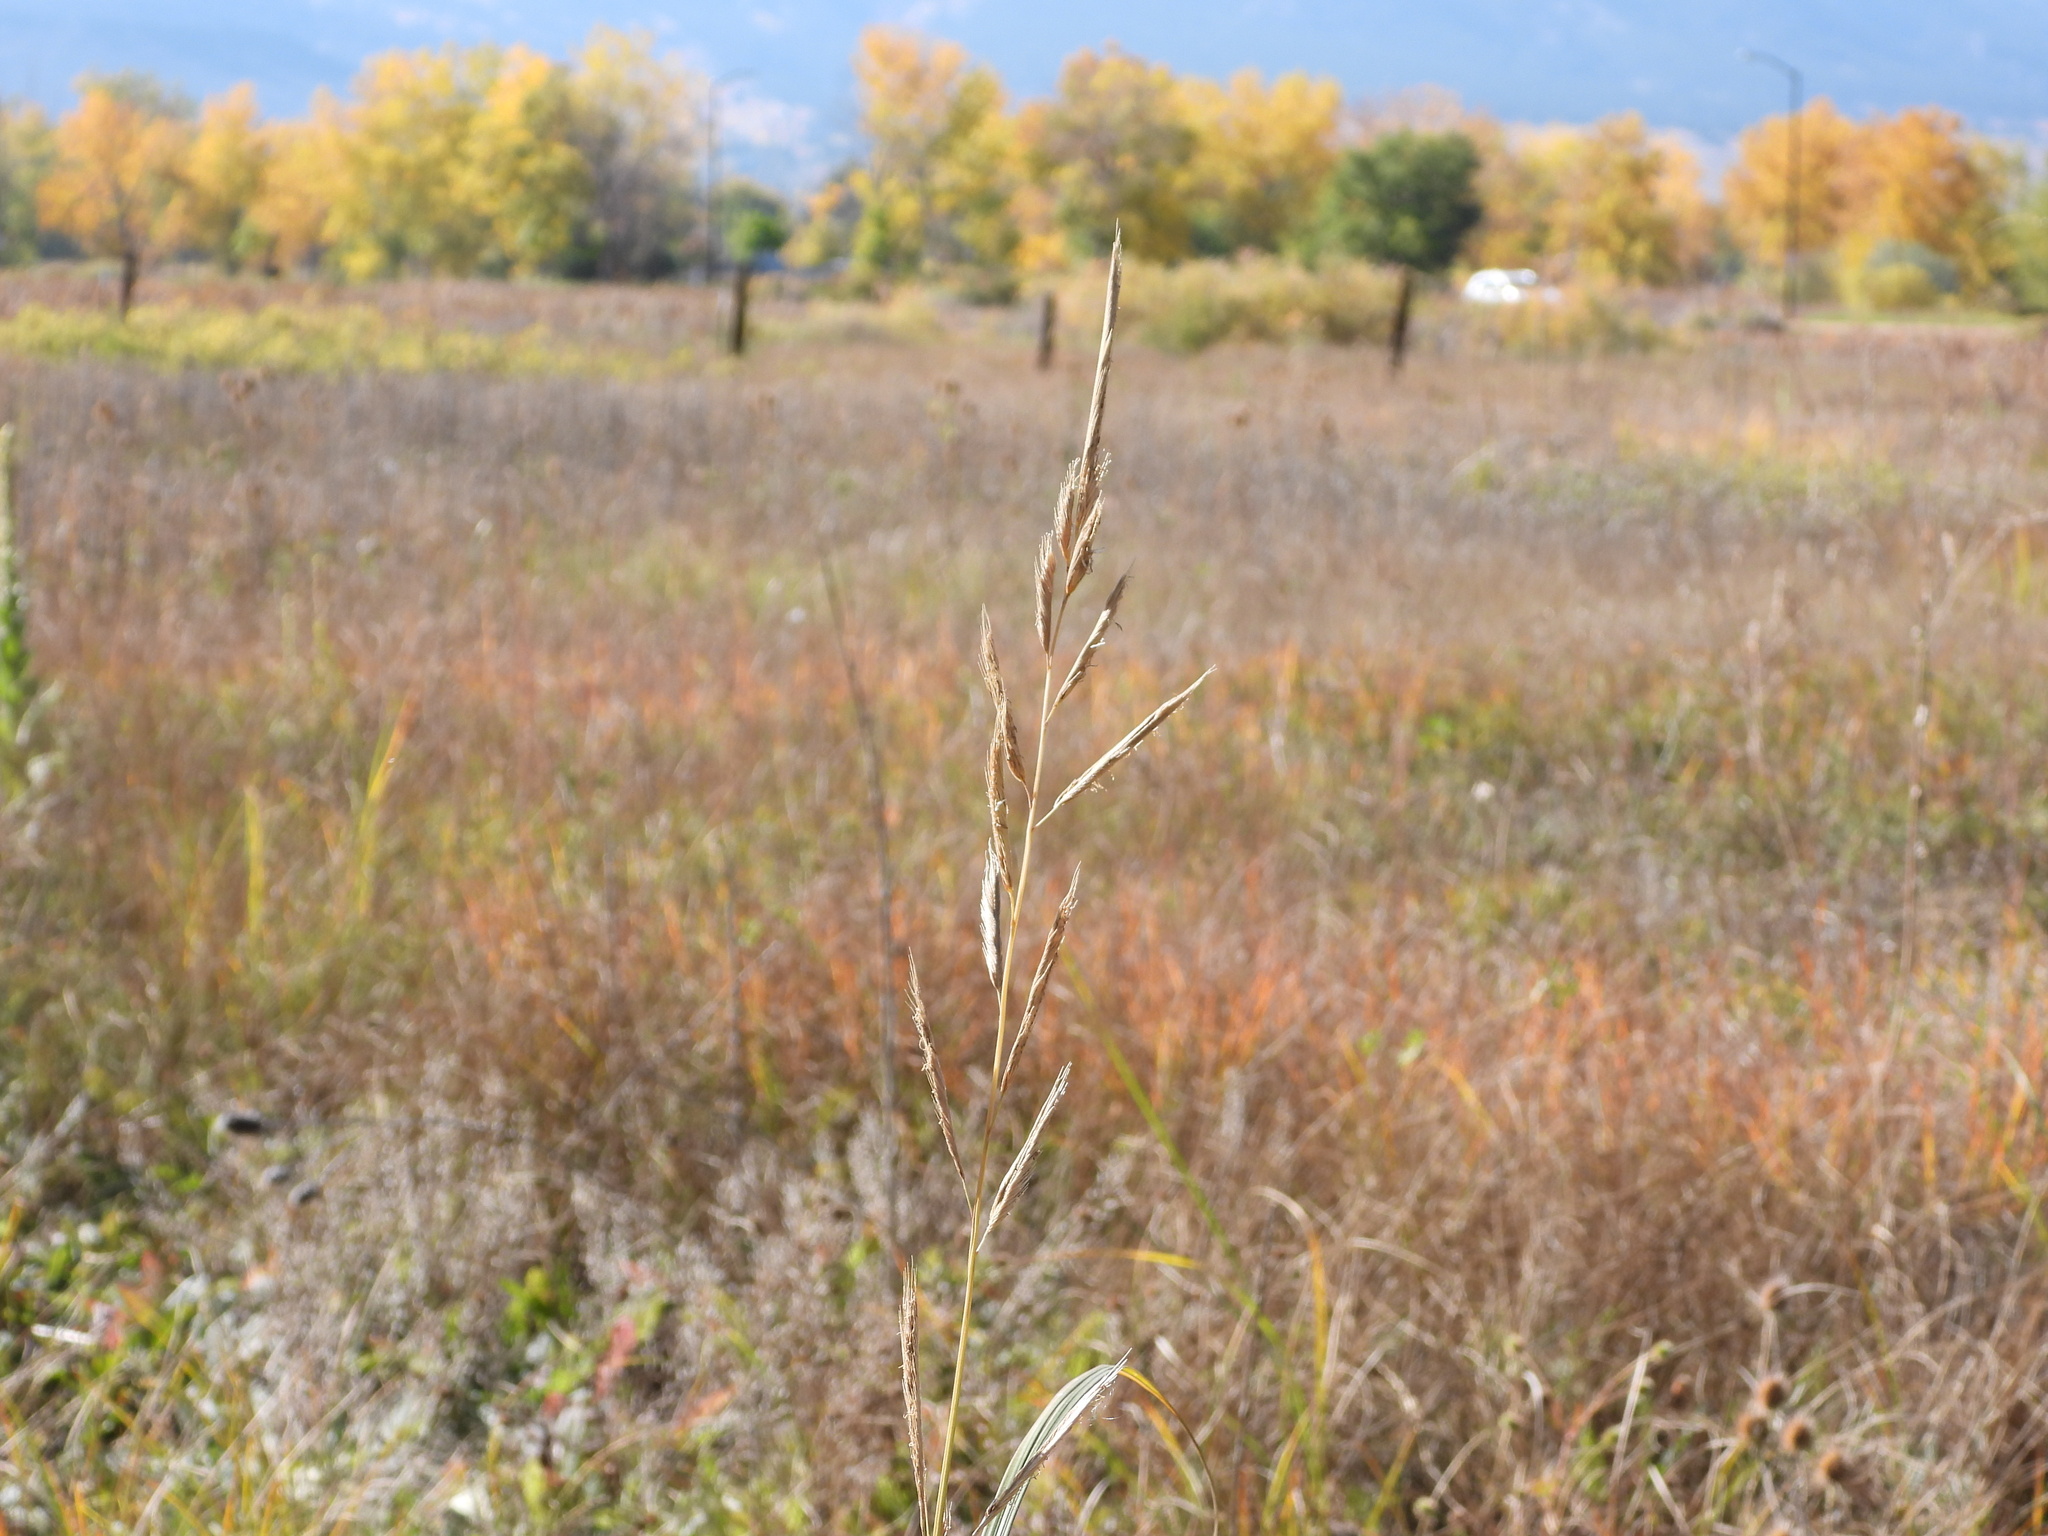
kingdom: Plantae
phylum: Tracheophyta
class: Liliopsida
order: Poales
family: Poaceae
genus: Sporobolus
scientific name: Sporobolus michauxianus
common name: Freshwater cordgrass
